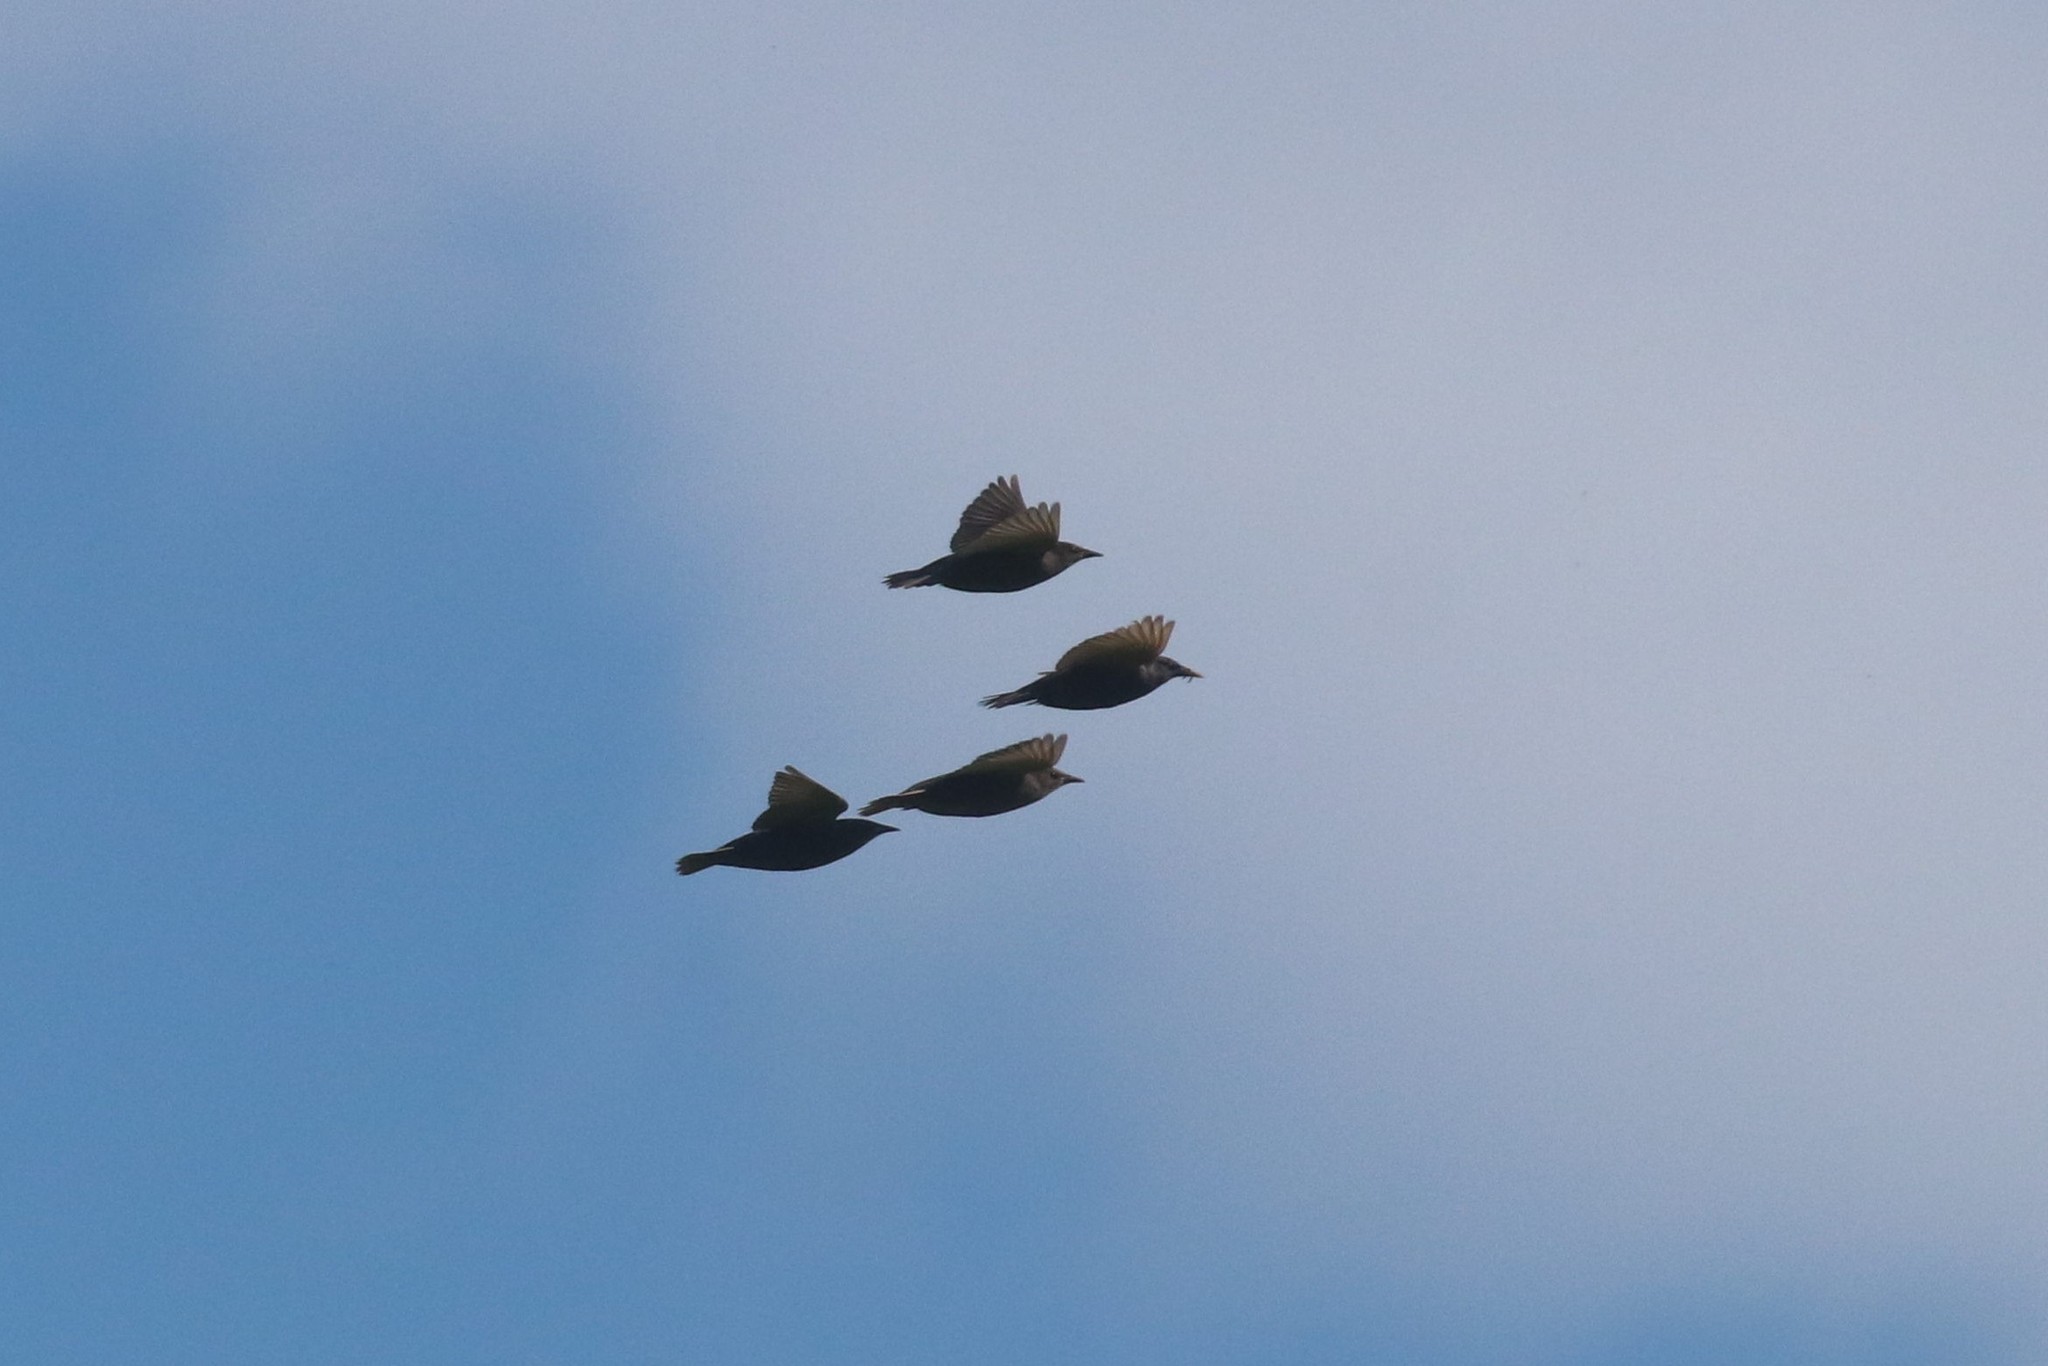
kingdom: Animalia
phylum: Chordata
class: Aves
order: Passeriformes
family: Sturnidae
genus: Sturnus
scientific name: Sturnus vulgaris
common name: Common starling
